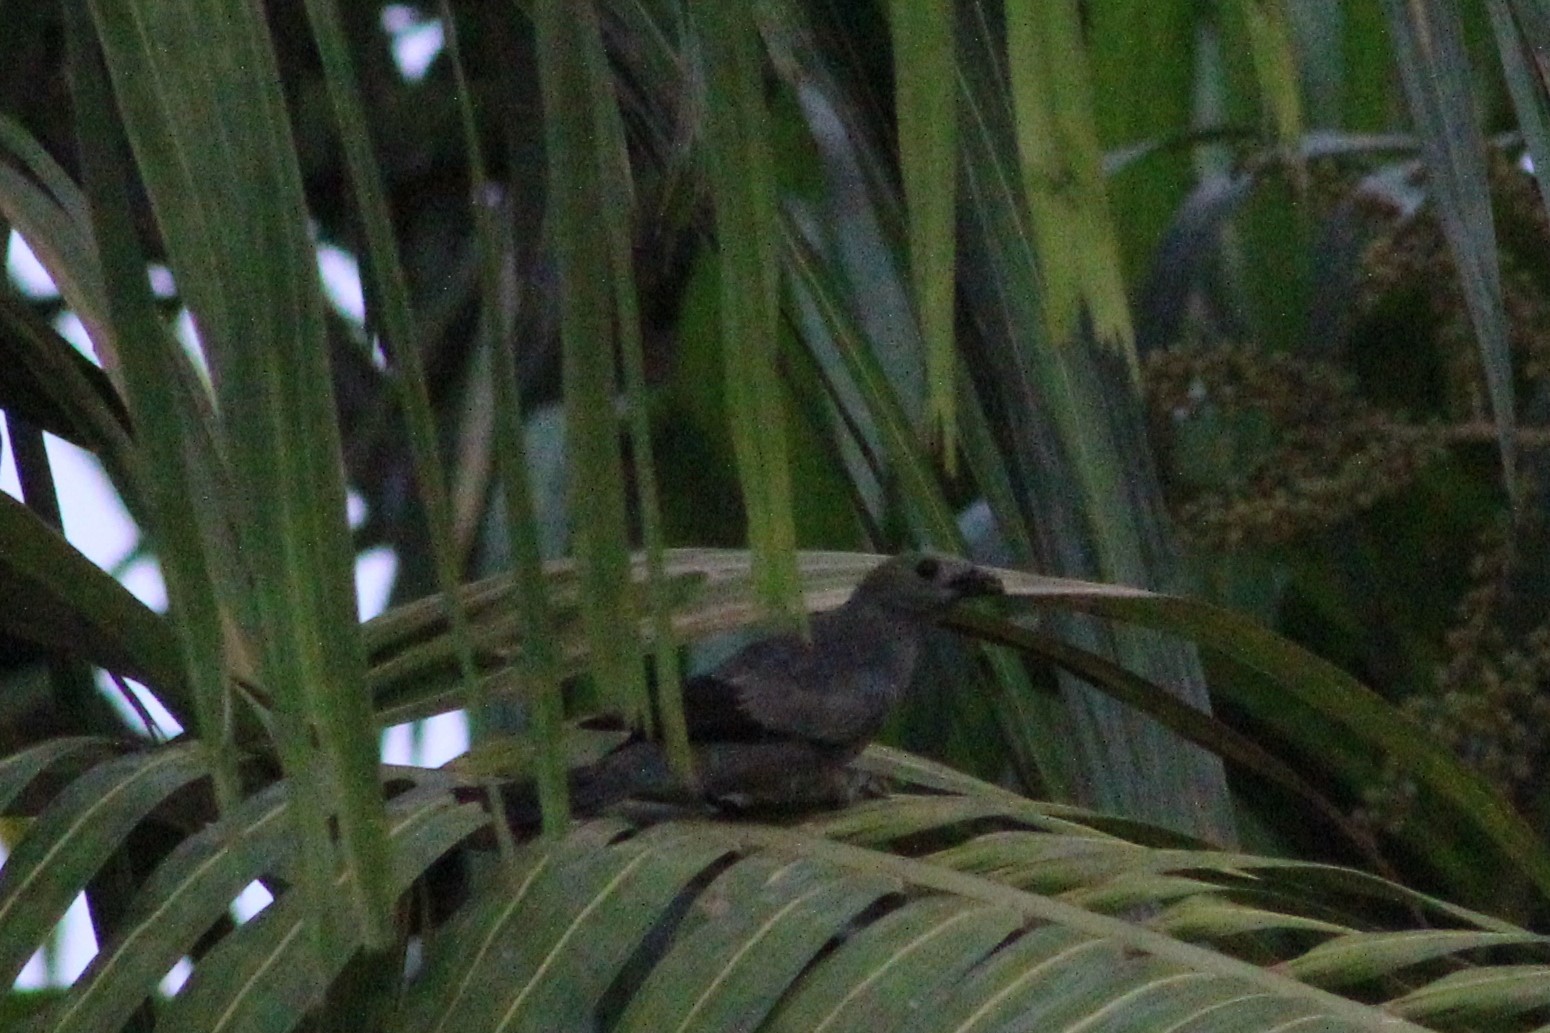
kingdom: Animalia
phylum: Chordata
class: Aves
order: Passeriformes
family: Thraupidae
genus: Thraupis
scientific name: Thraupis palmarum
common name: Palm tanager
